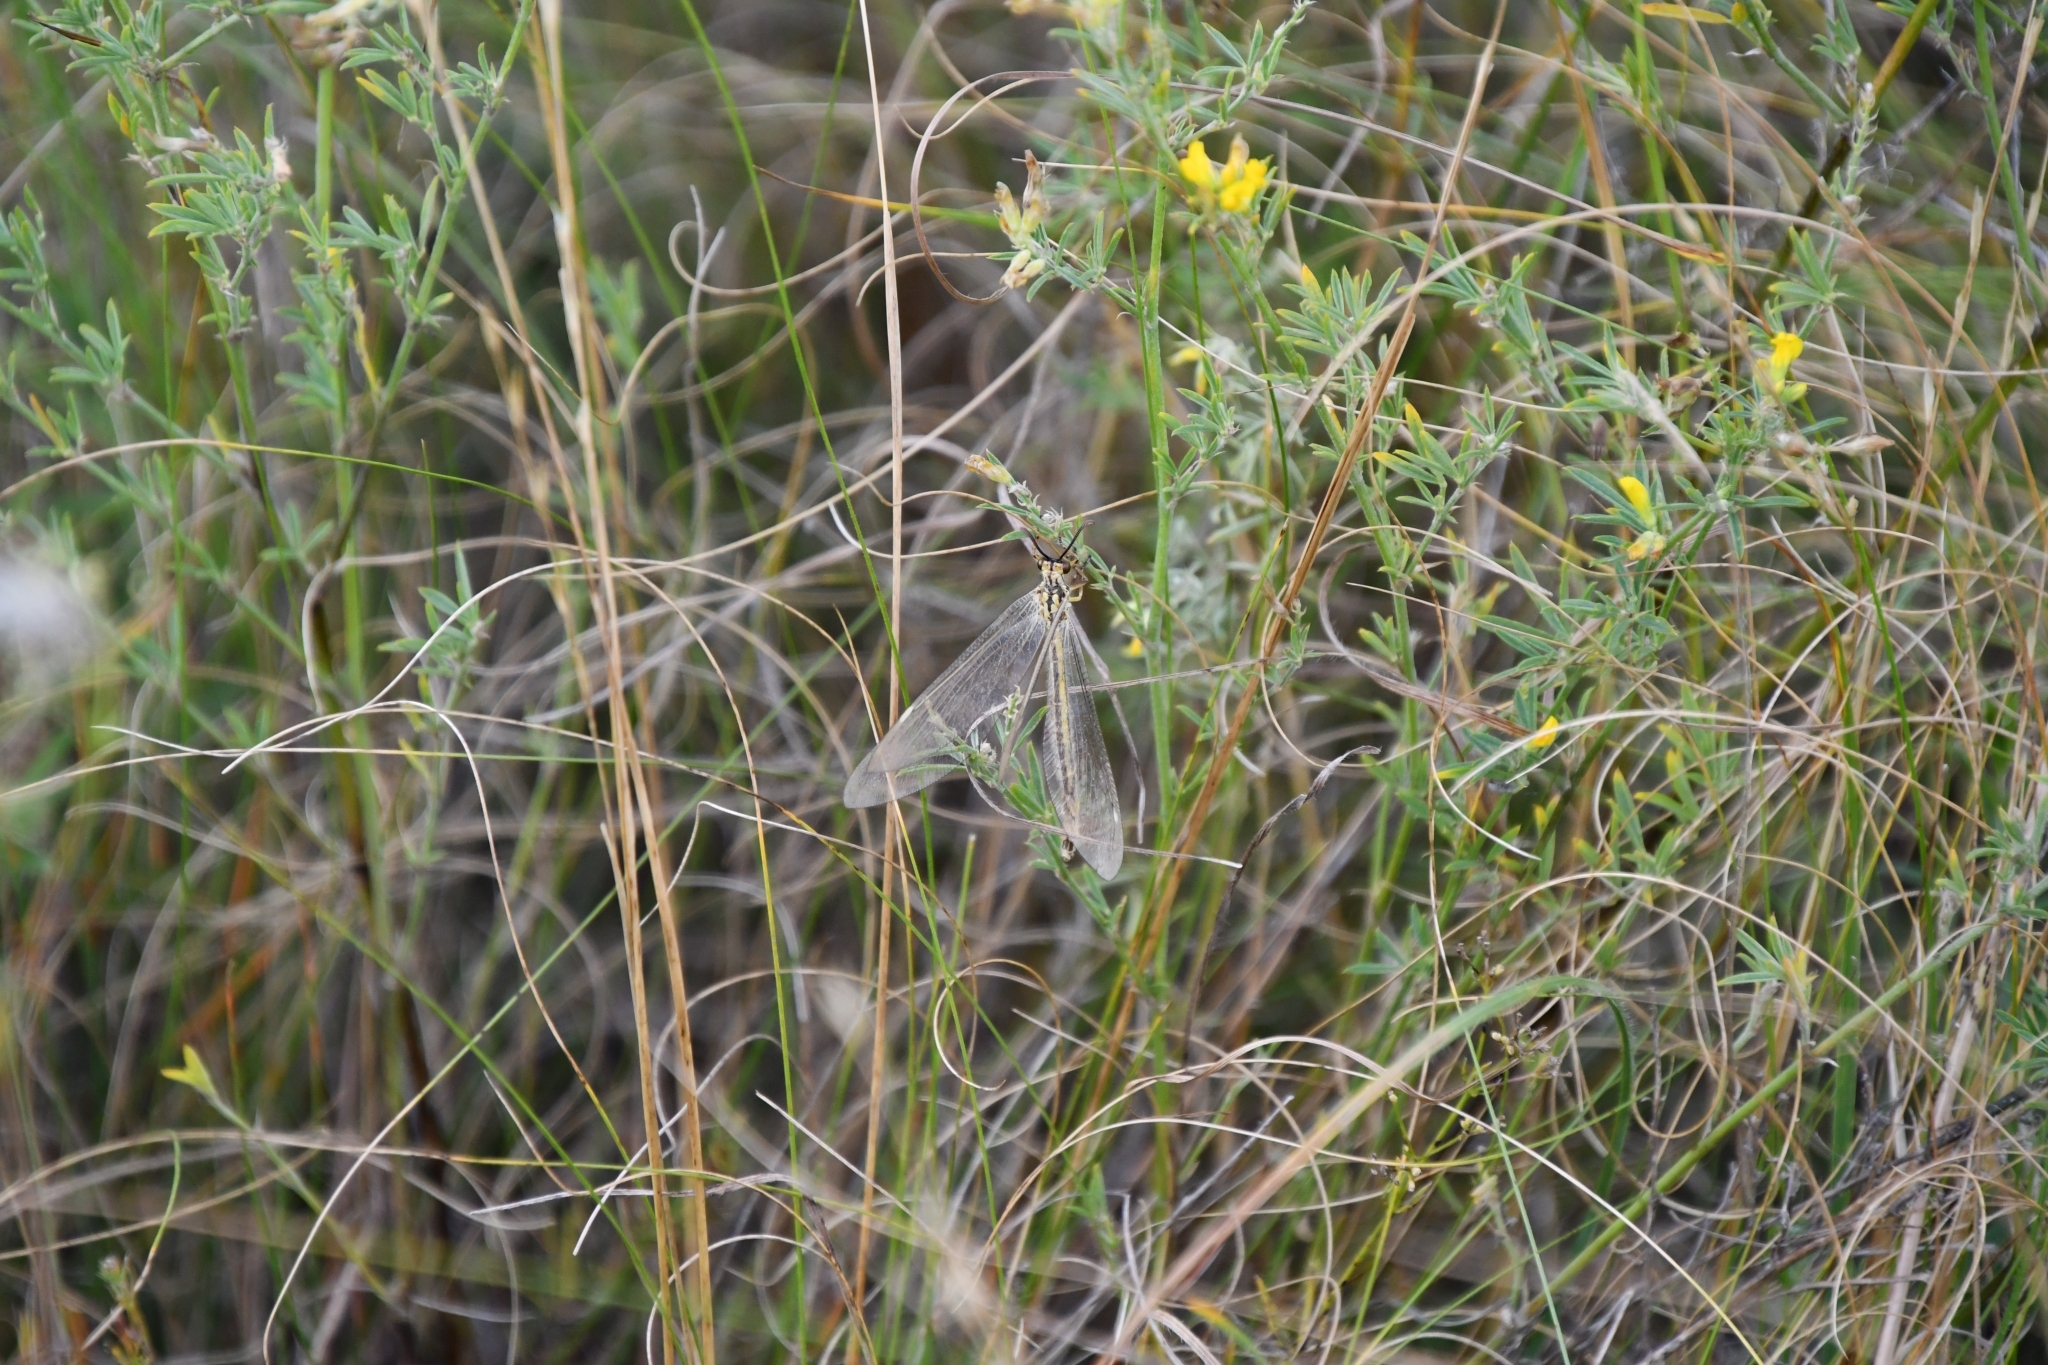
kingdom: Animalia
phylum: Arthropoda
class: Insecta
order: Neuroptera
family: Myrmeleontidae
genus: Myrmecaelurus
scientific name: Myrmecaelurus trigrammus
